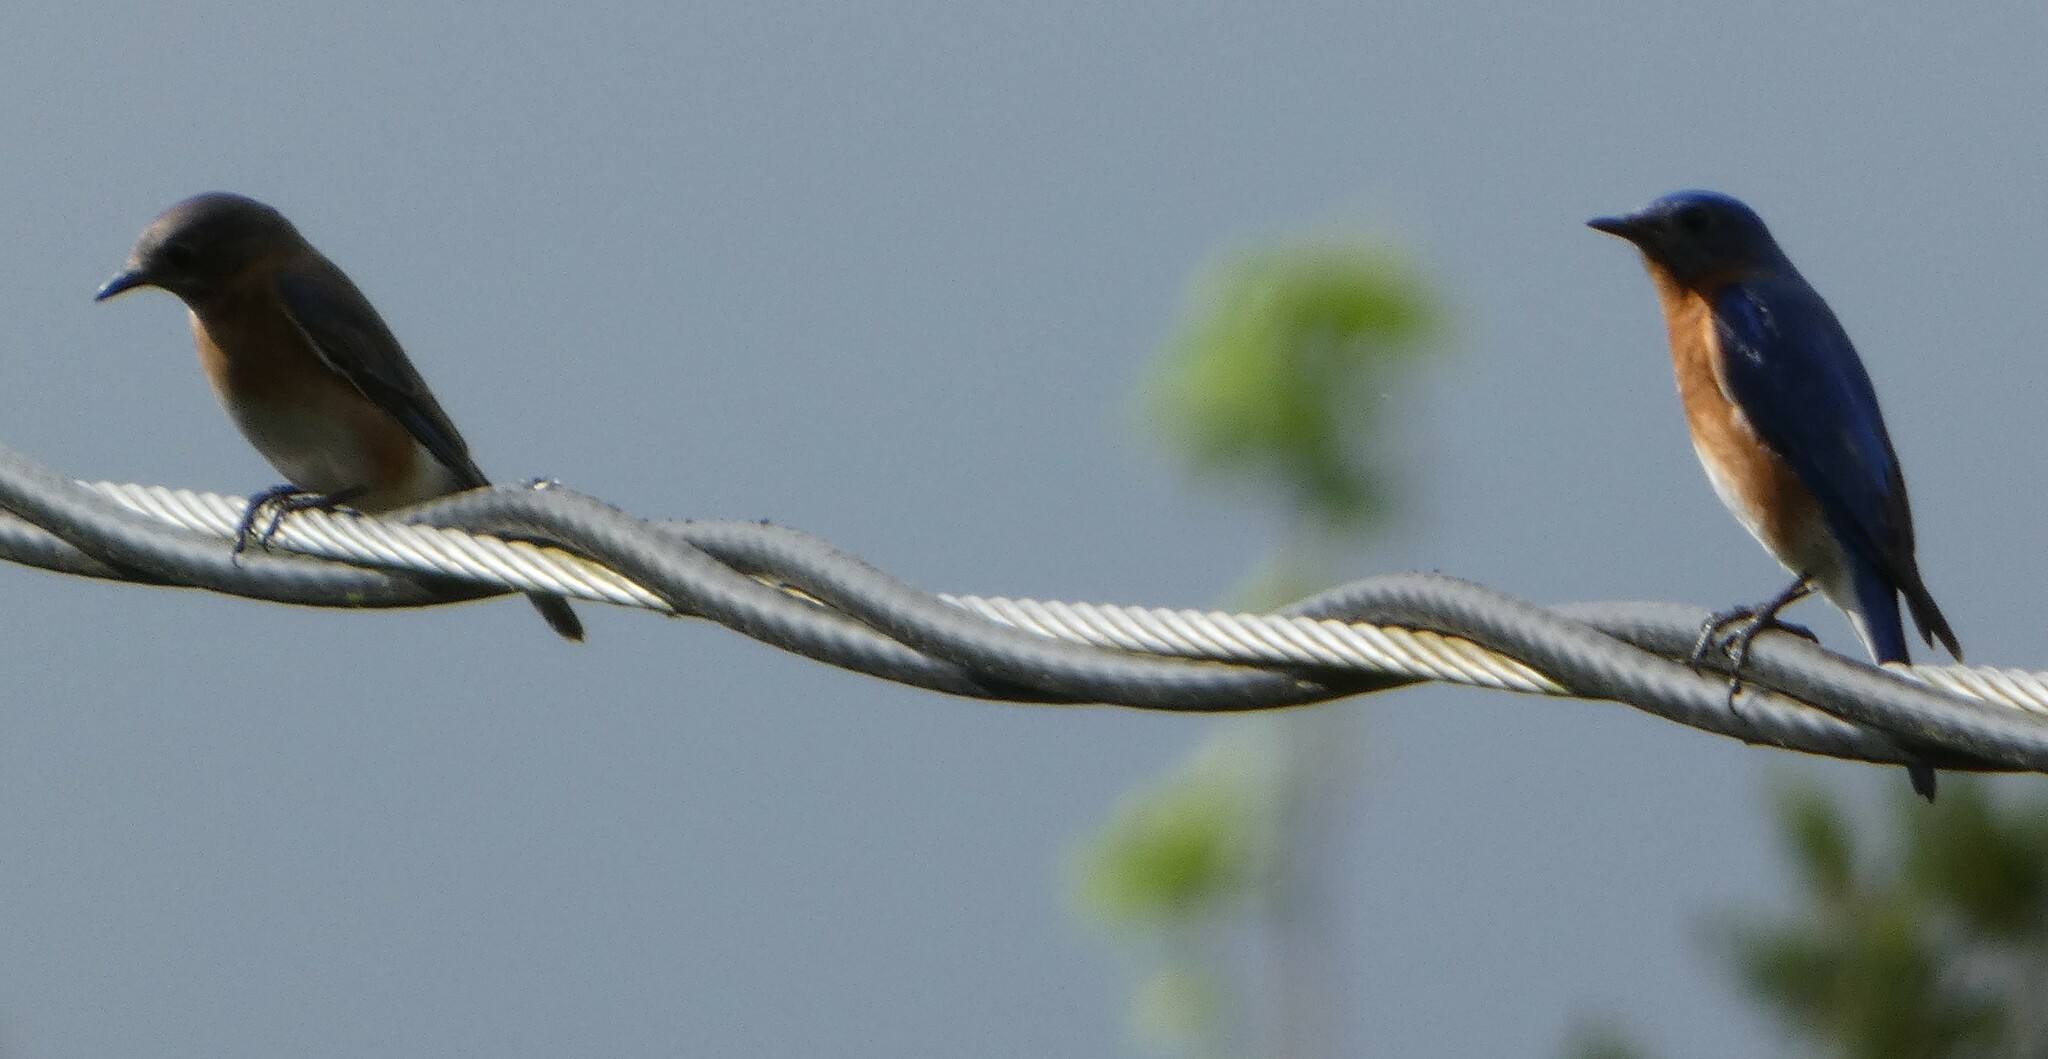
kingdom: Animalia
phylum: Chordata
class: Aves
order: Passeriformes
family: Turdidae
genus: Sialia
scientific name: Sialia sialis
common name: Eastern bluebird
